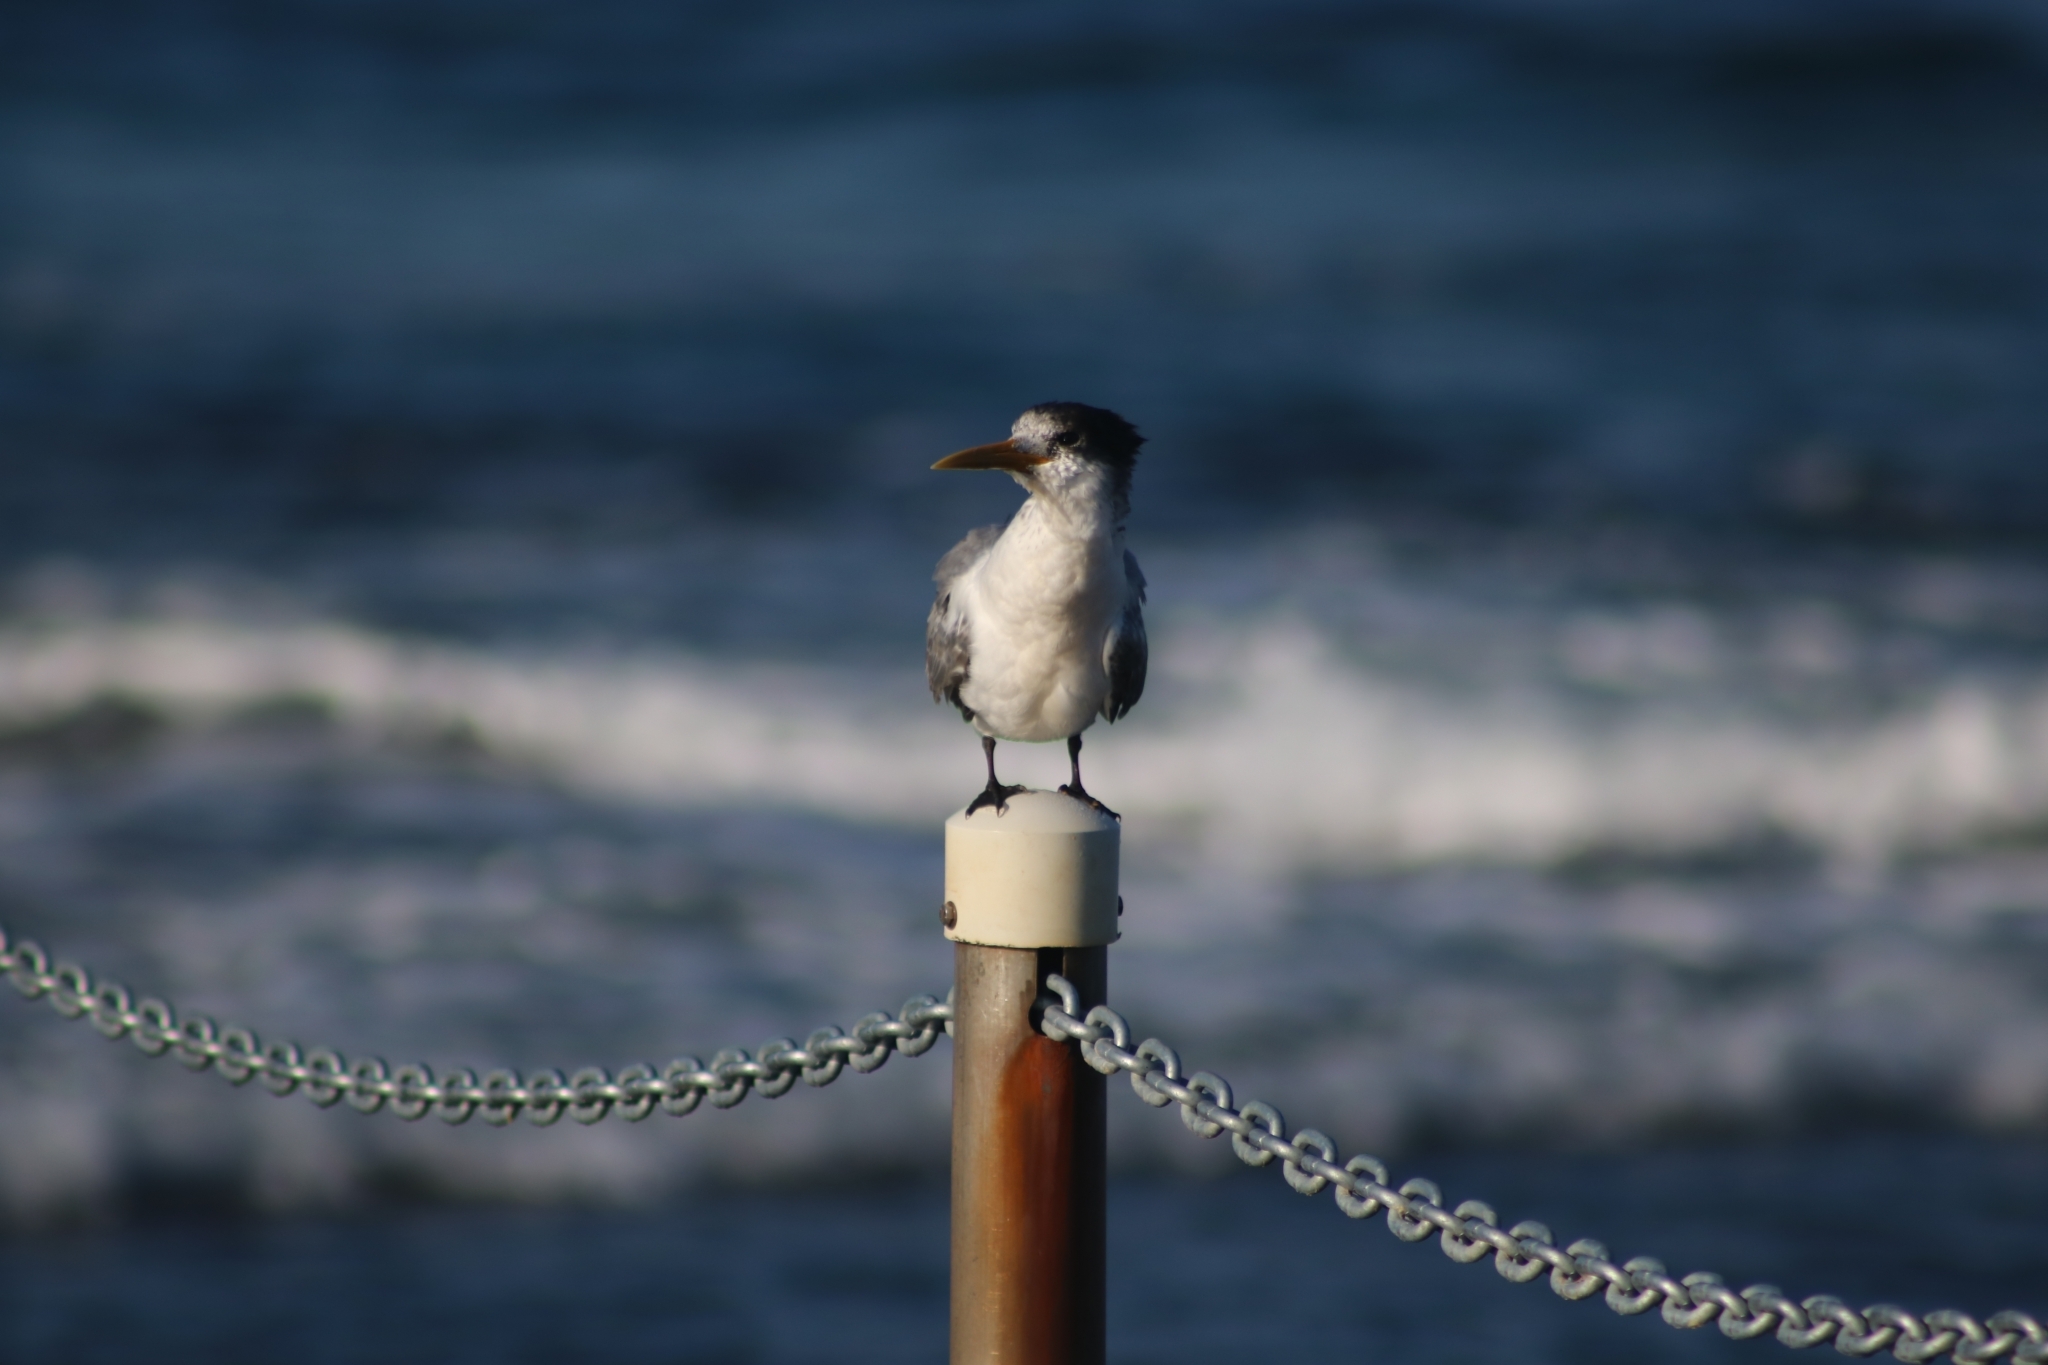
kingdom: Animalia
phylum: Chordata
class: Aves
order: Charadriiformes
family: Laridae
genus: Thalasseus
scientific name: Thalasseus bergii
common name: Greater crested tern
